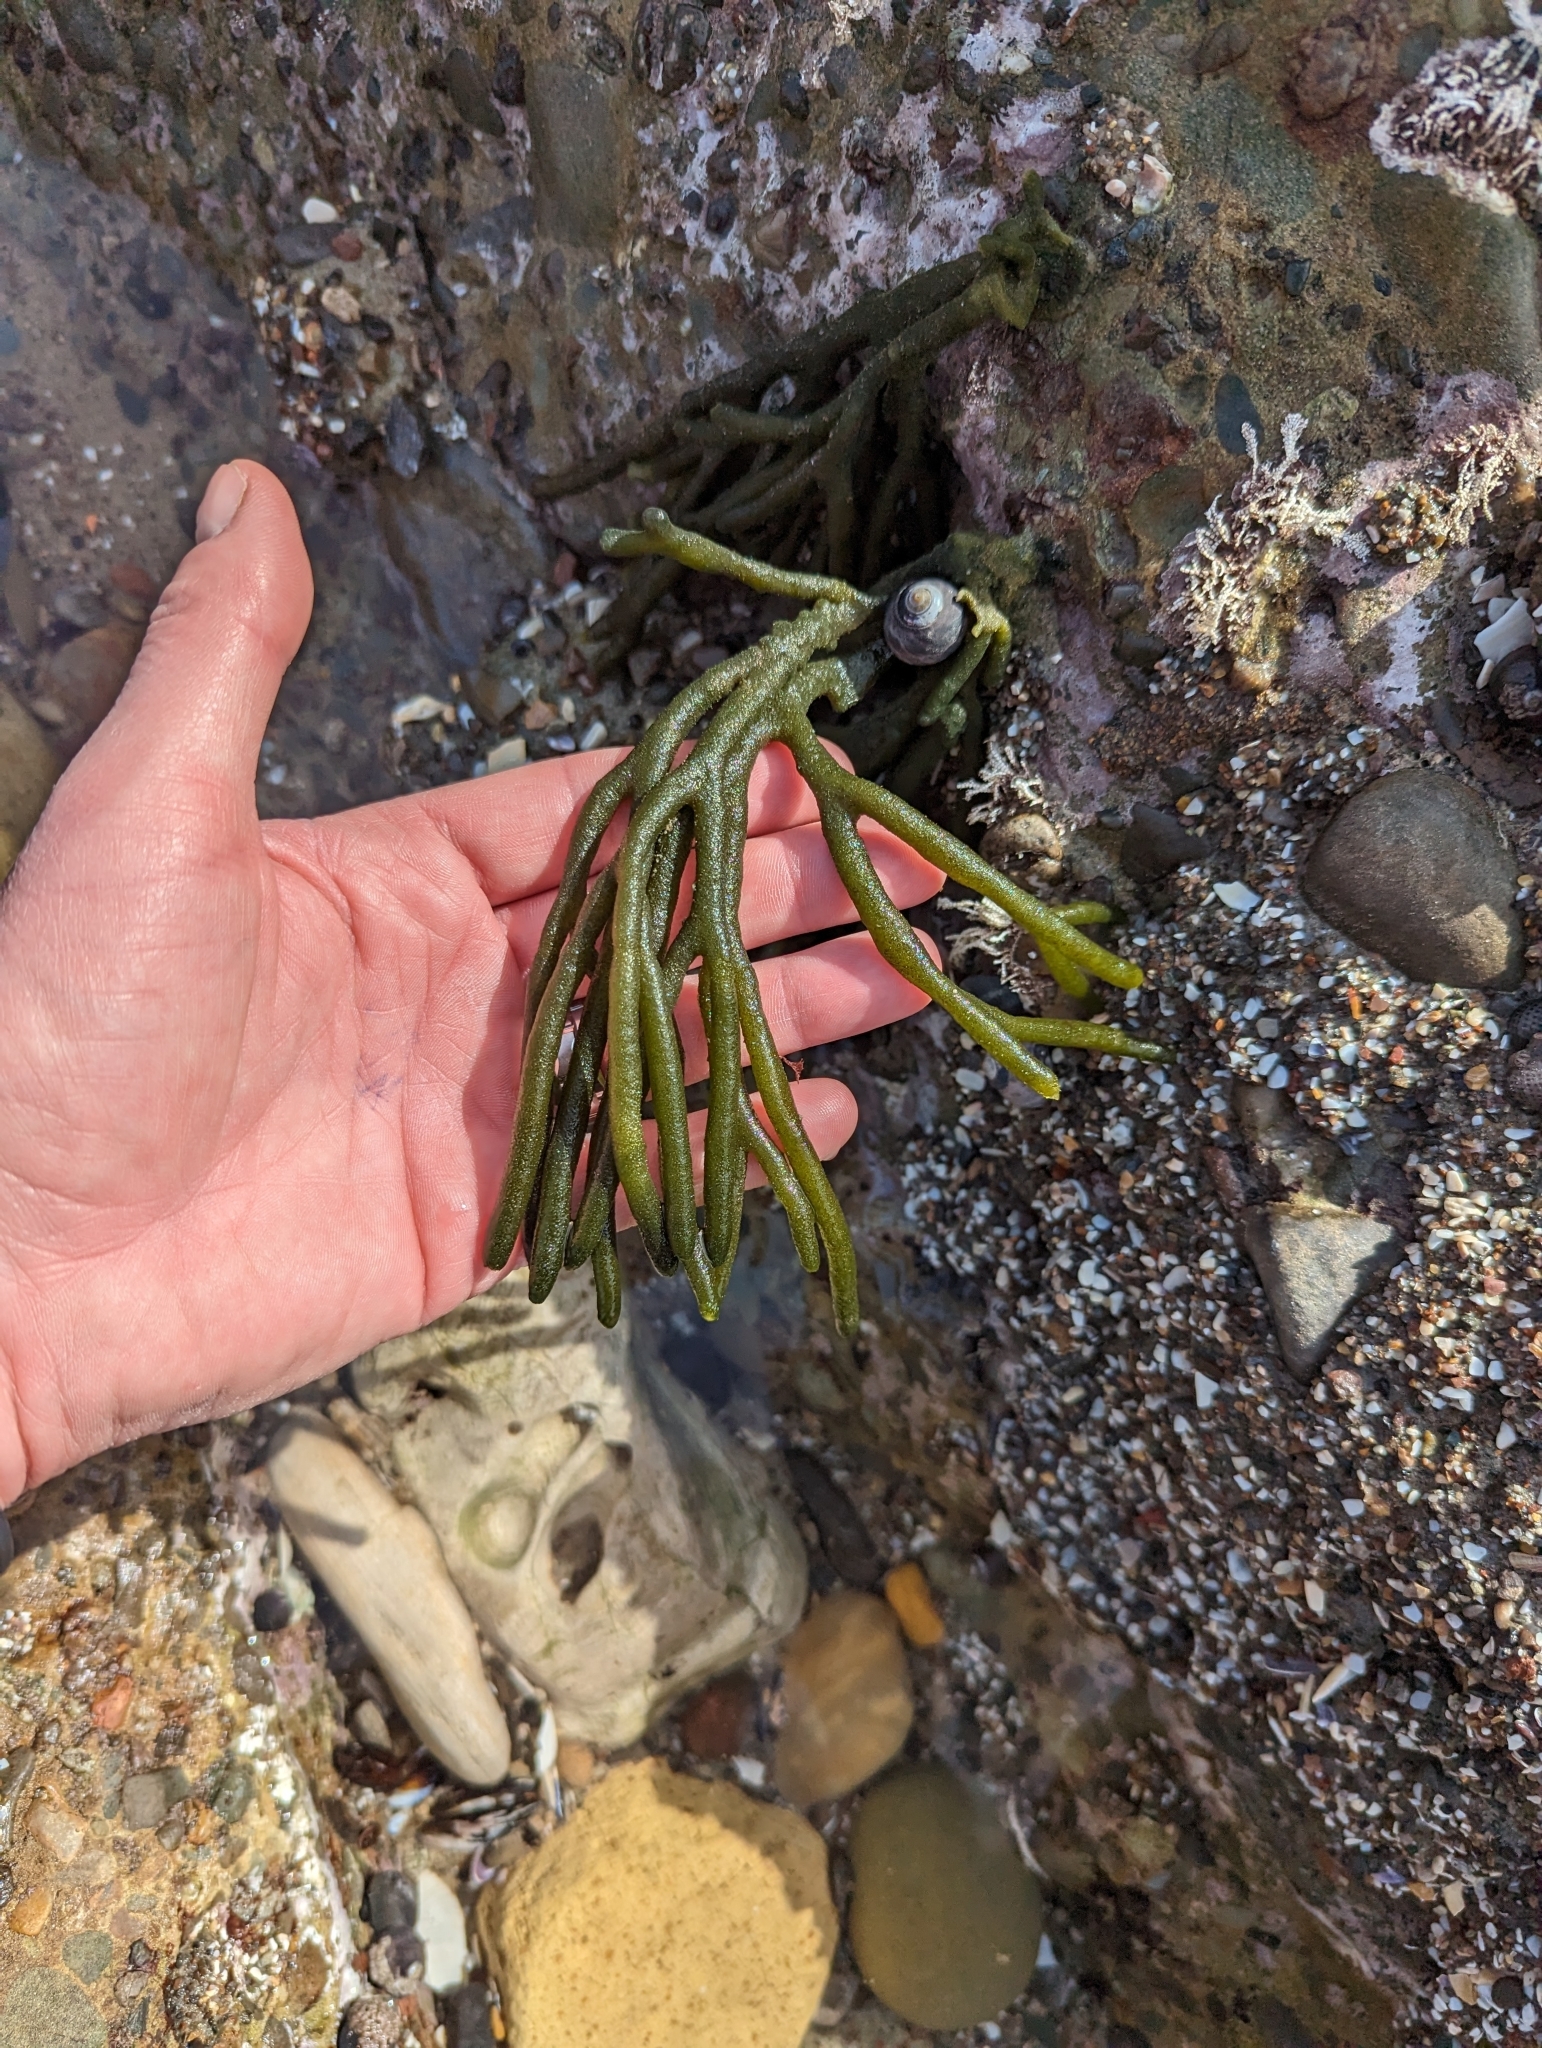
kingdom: Plantae
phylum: Chlorophyta
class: Ulvophyceae
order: Bryopsidales
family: Codiaceae
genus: Codium
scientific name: Codium fragile
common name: Dead man's fingers
